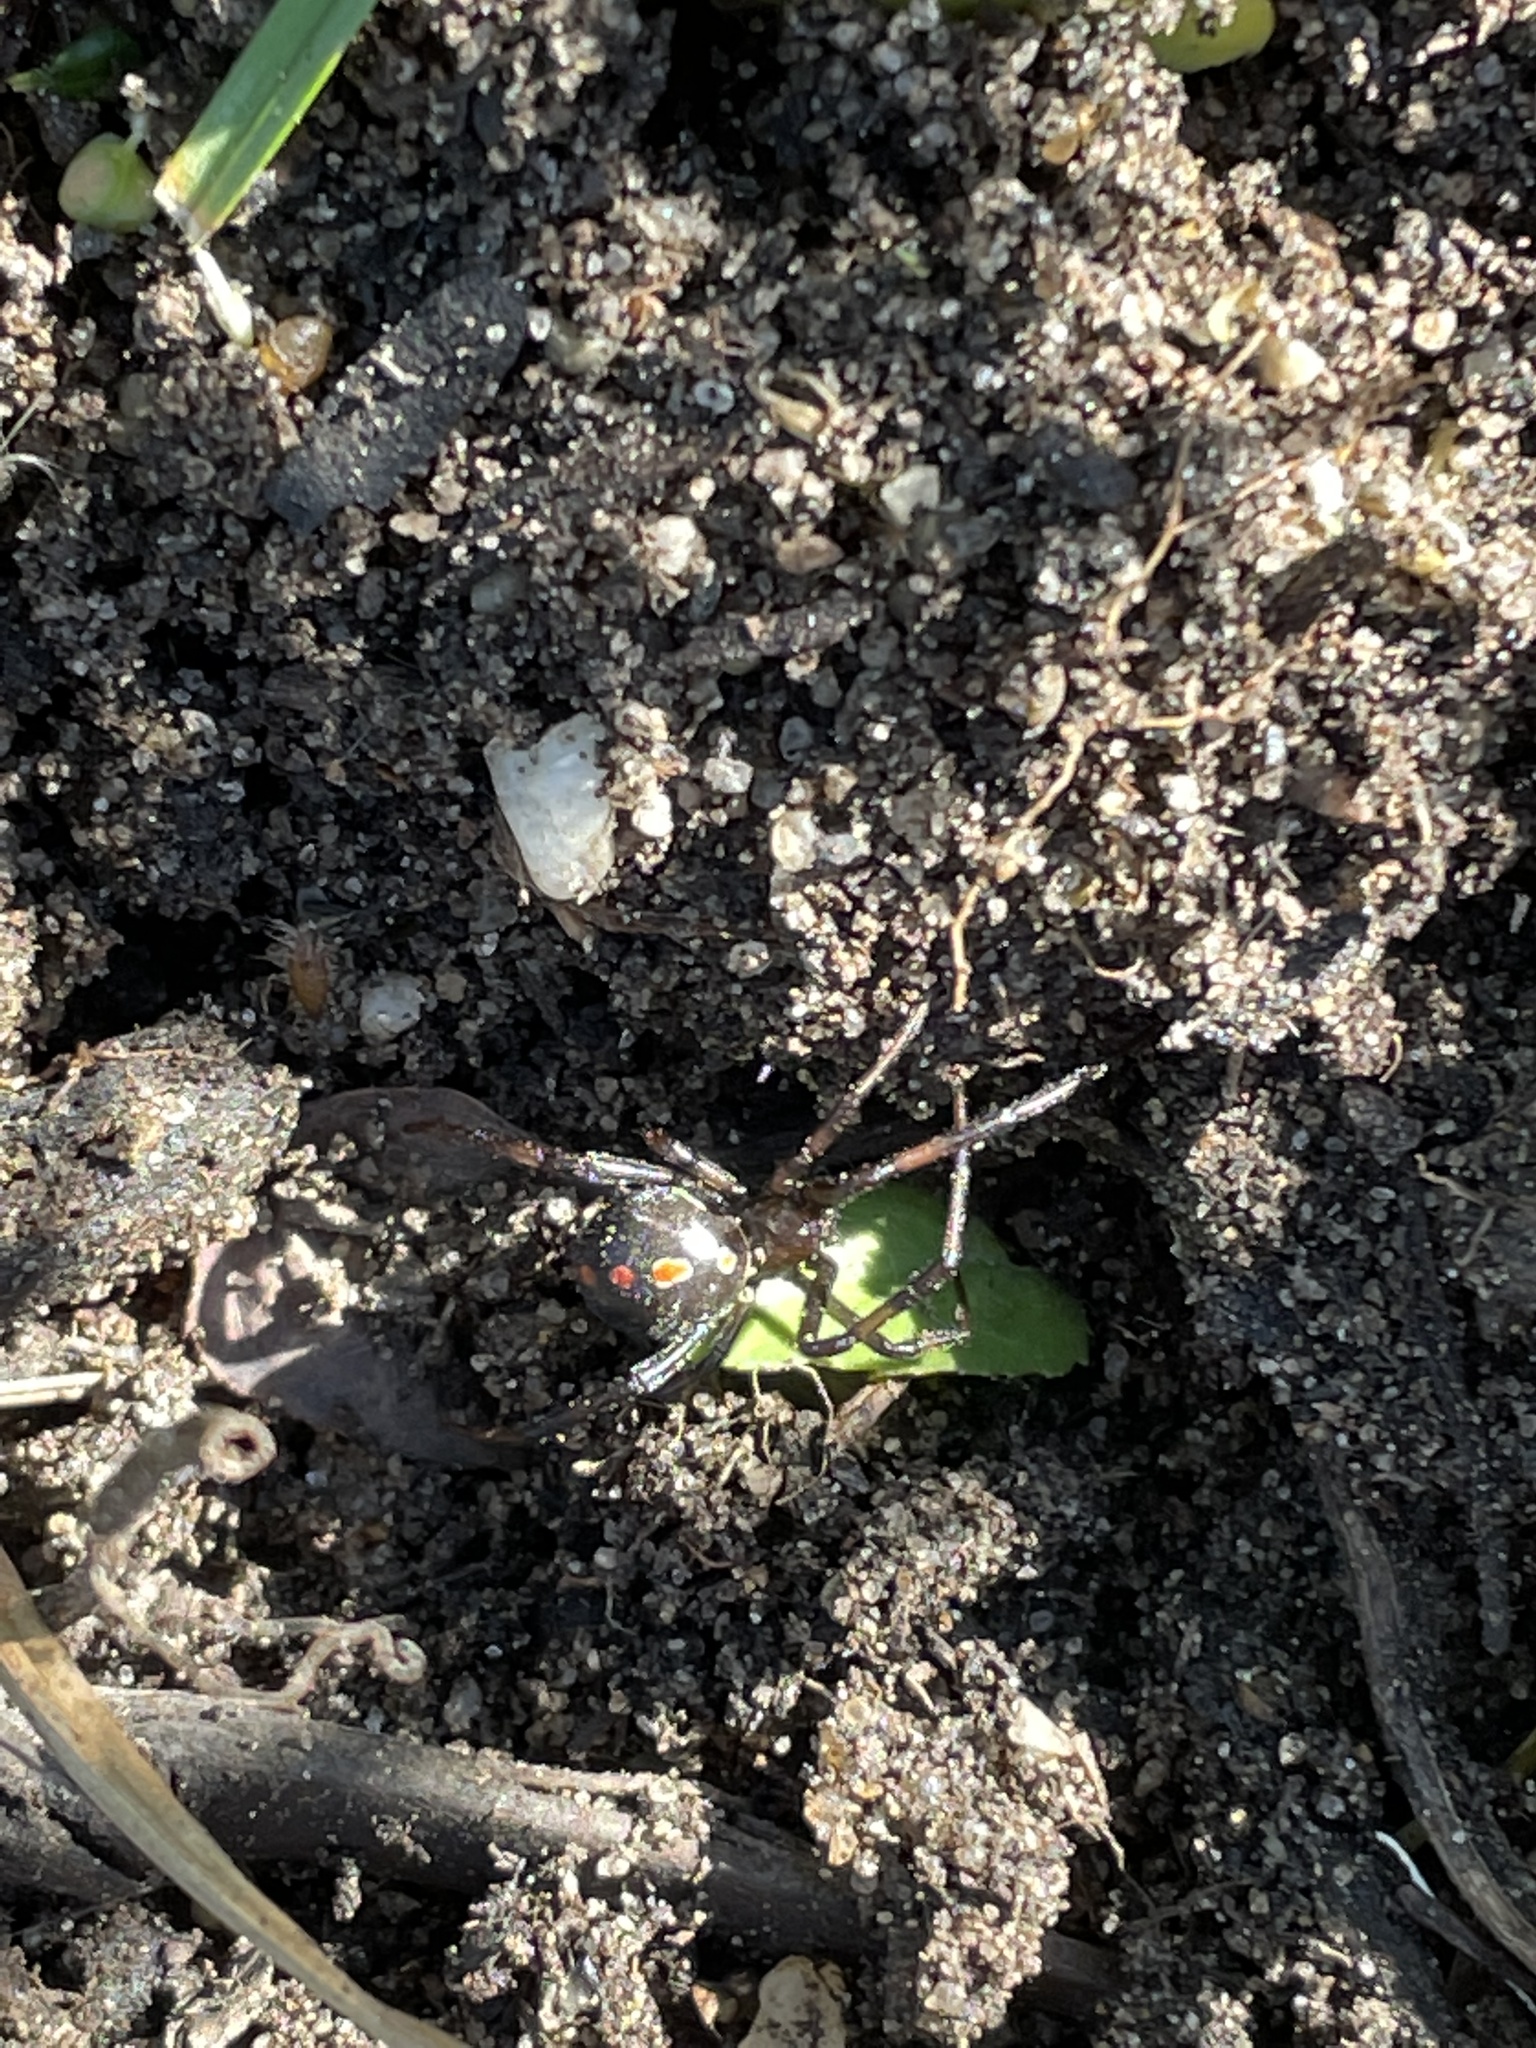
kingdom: Animalia
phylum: Arthropoda
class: Arachnida
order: Araneae
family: Theridiidae
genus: Latrodectus
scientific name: Latrodectus variolus
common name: Northern black widow
